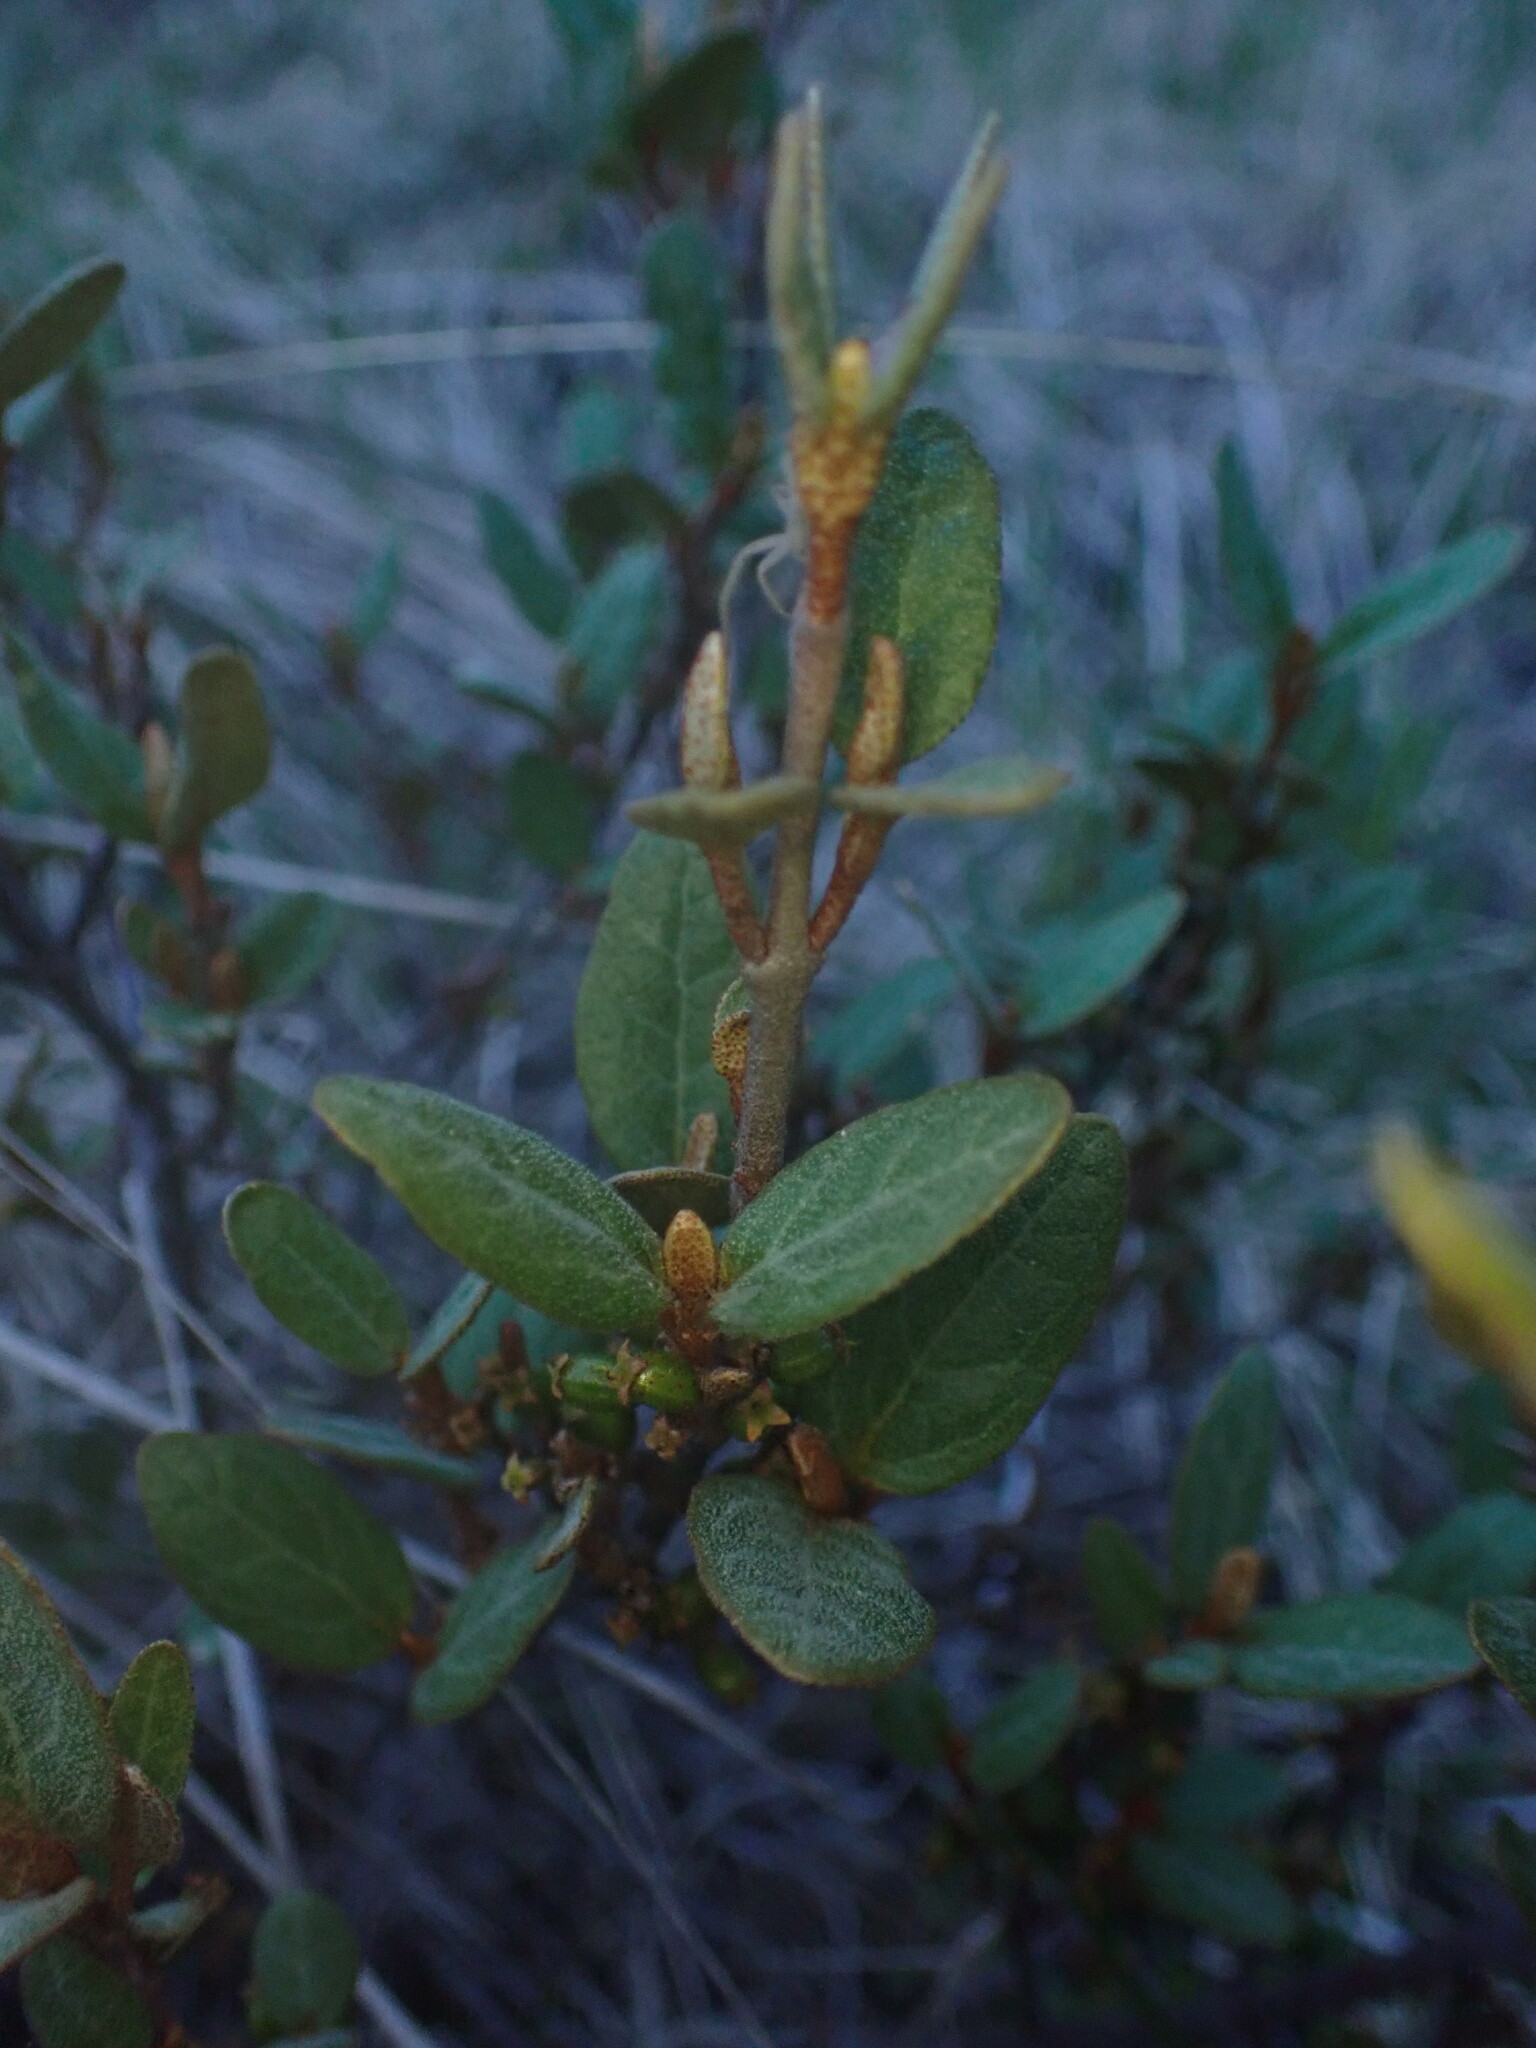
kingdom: Plantae
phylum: Tracheophyta
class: Magnoliopsida
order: Rosales
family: Elaeagnaceae
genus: Shepherdia
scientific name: Shepherdia canadensis
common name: Soapberry
